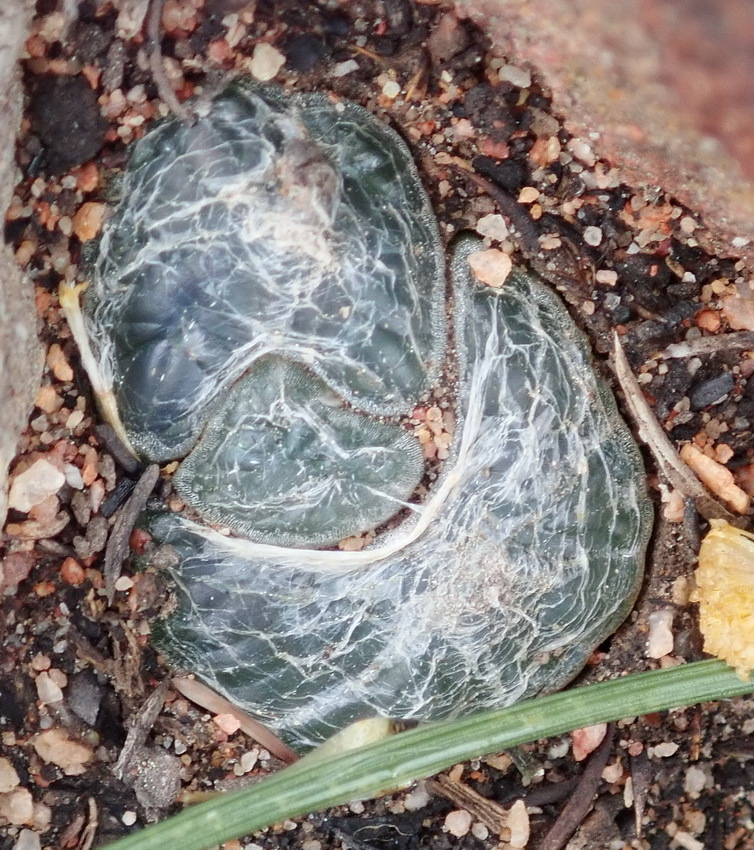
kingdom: Plantae
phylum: Tracheophyta
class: Liliopsida
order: Asparagales
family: Asphodelaceae
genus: Bulbine
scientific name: Bulbine mesembryanthoides
